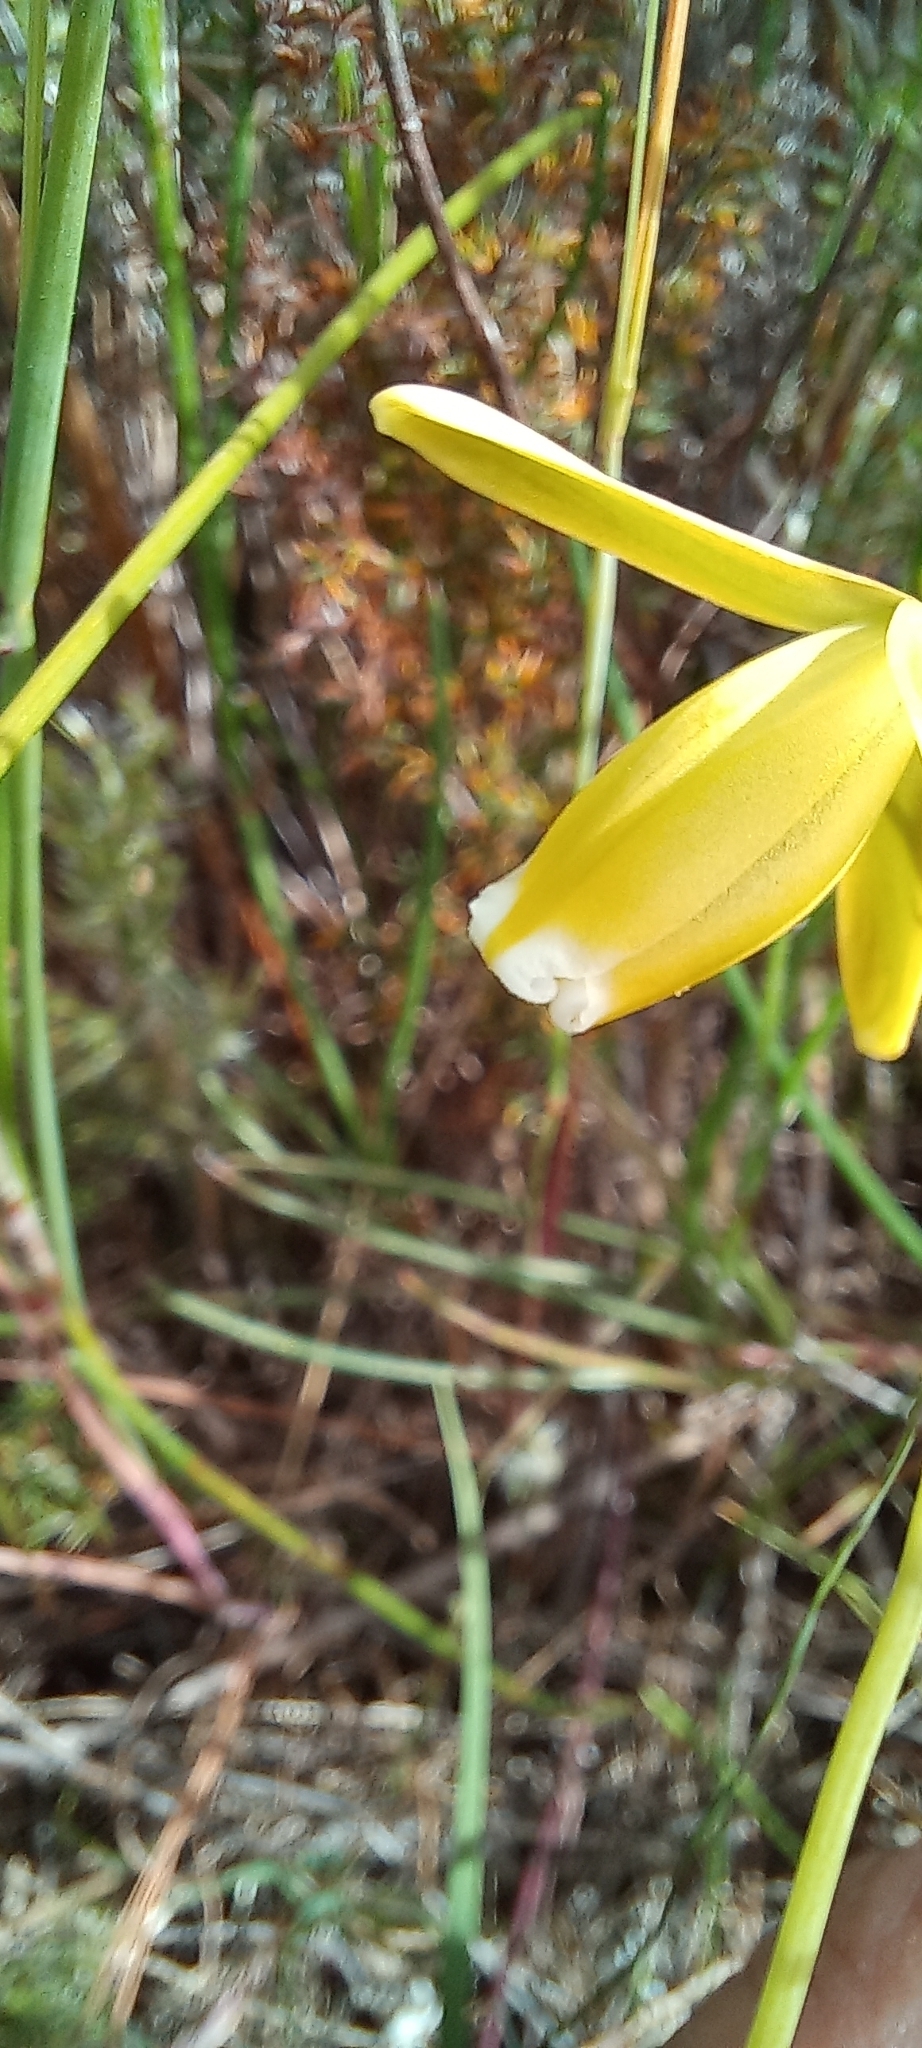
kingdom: Plantae
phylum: Tracheophyta
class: Liliopsida
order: Asparagales
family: Asparagaceae
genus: Albuca
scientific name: Albuca cooperi
